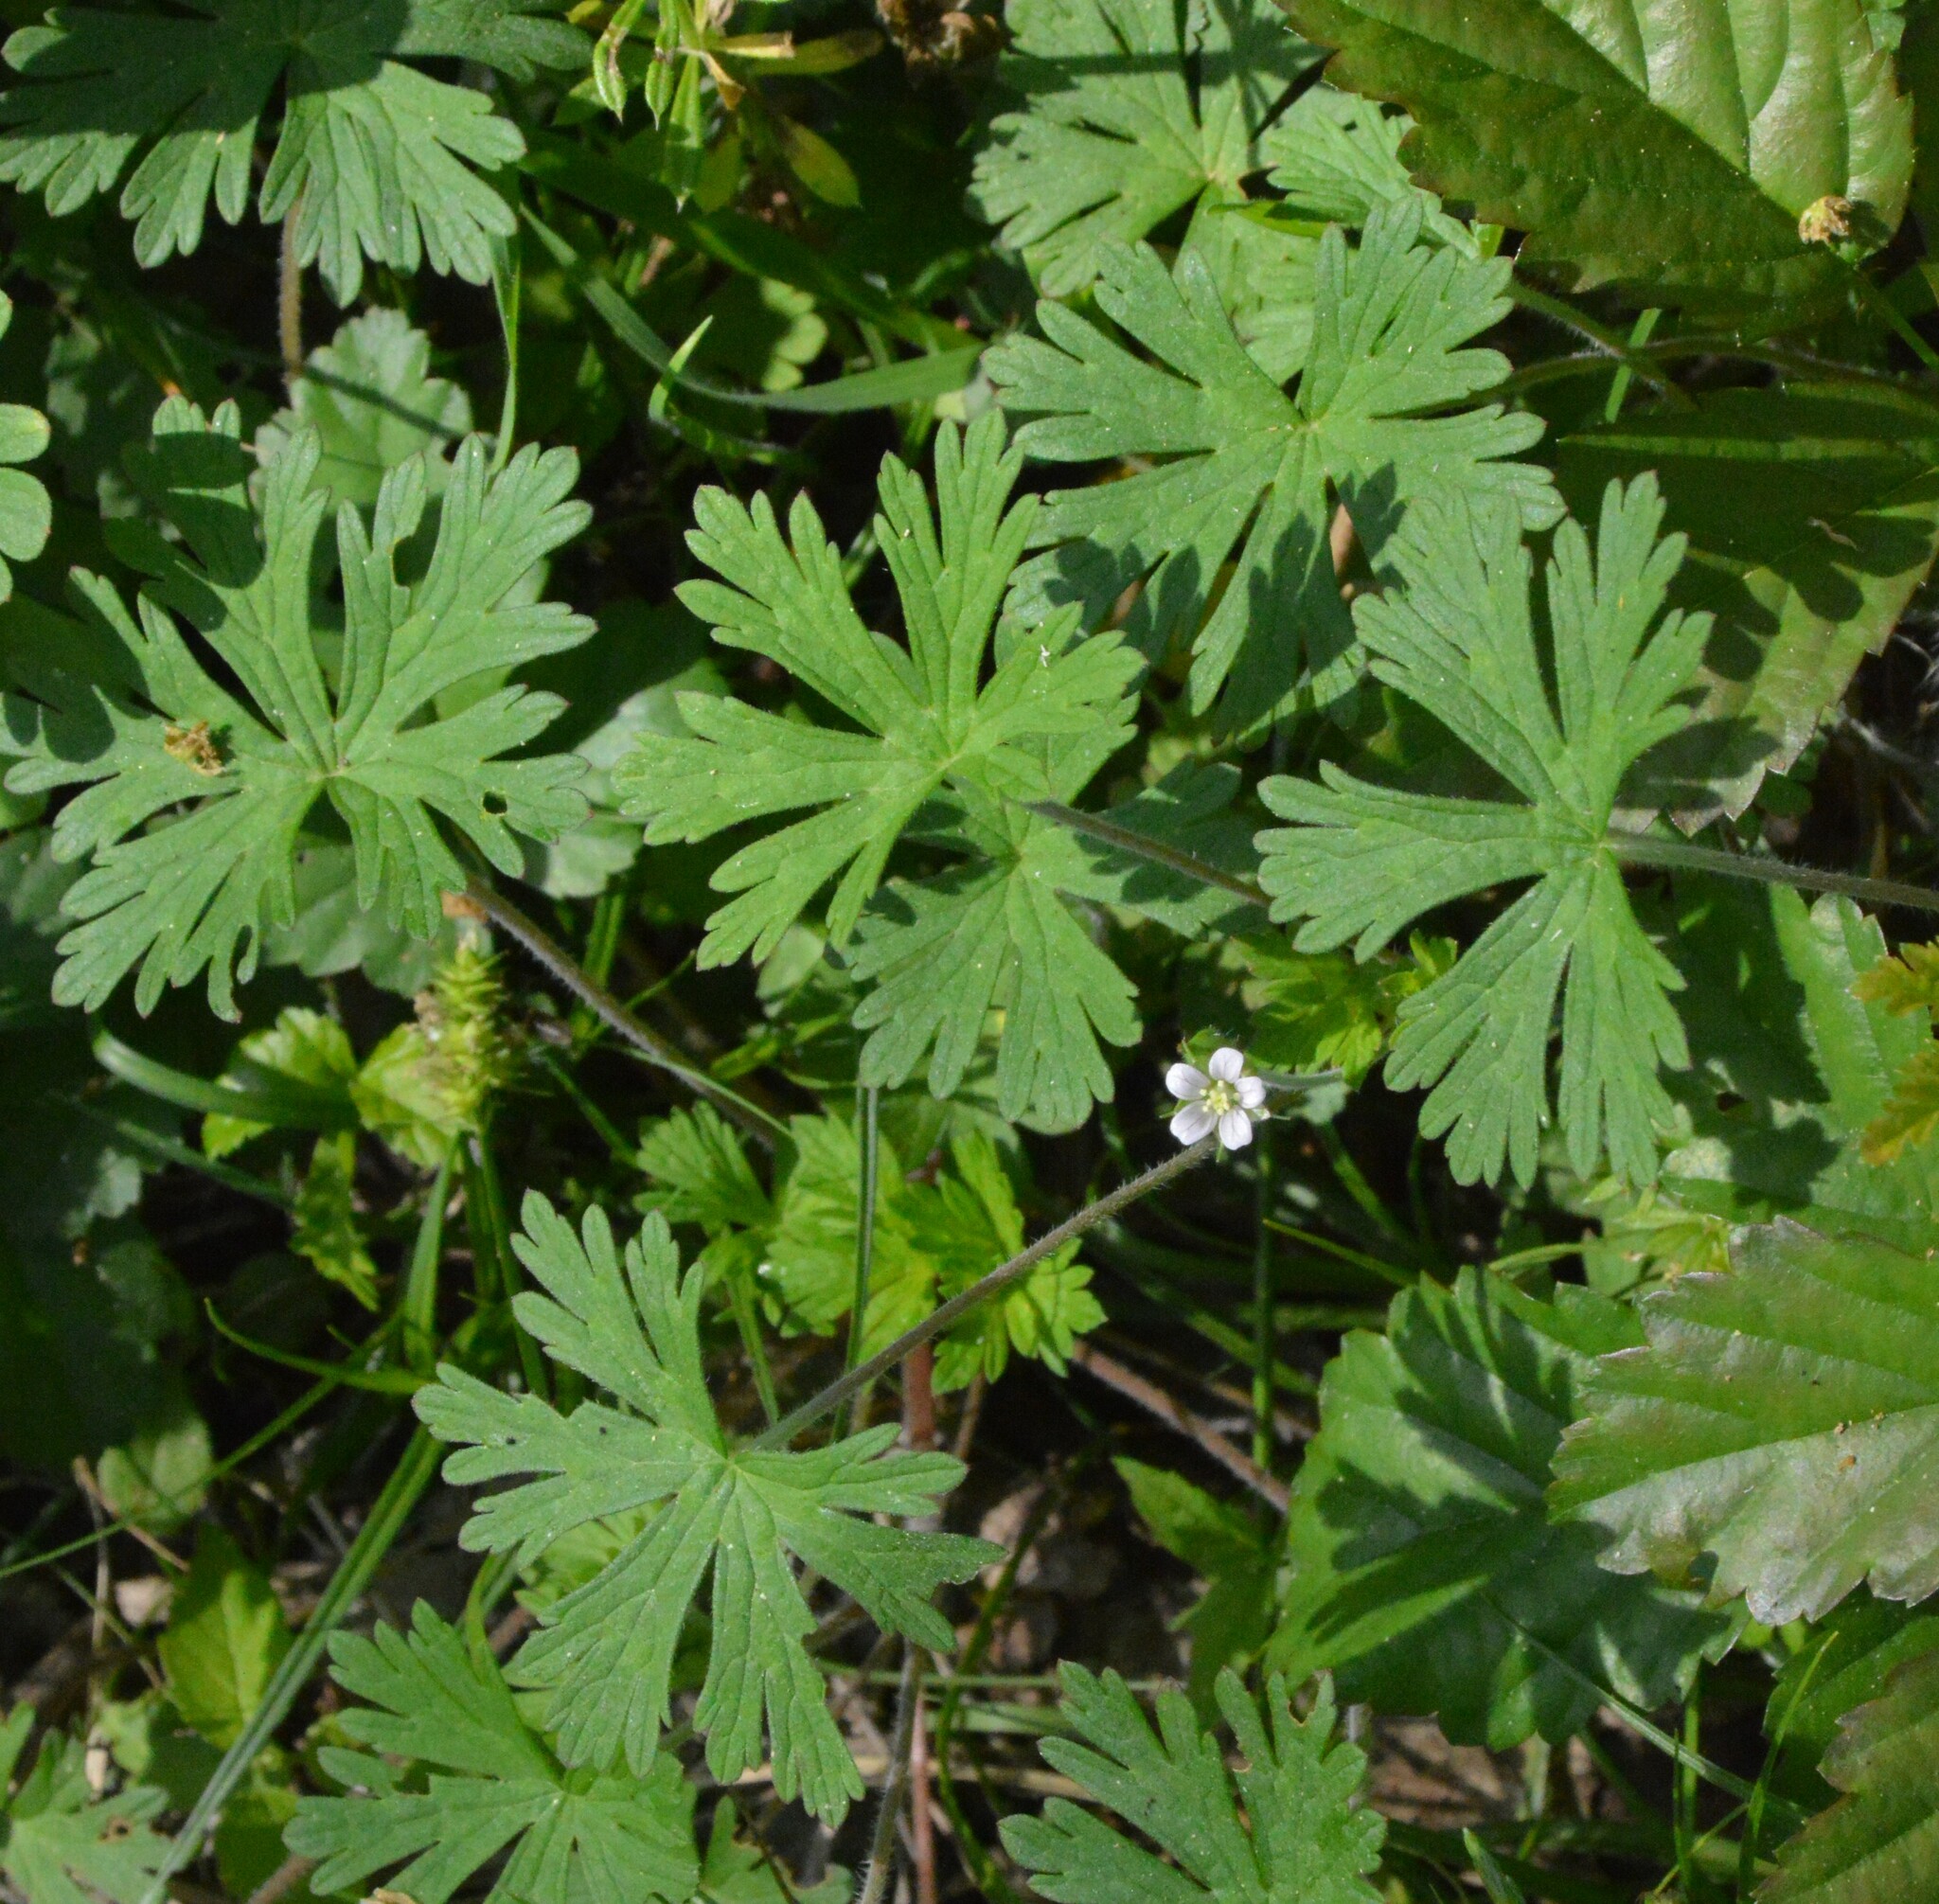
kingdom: Plantae
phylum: Tracheophyta
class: Magnoliopsida
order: Geraniales
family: Geraniaceae
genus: Geranium
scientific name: Geranium carolinianum
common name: Carolina crane's-bill
